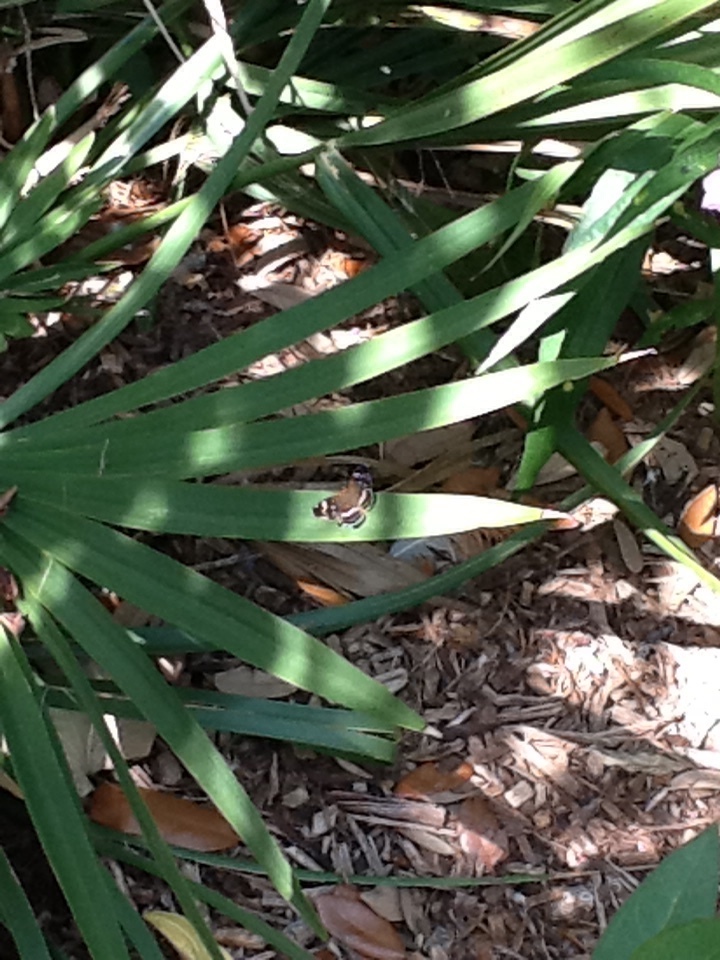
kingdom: Animalia
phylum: Arthropoda
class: Insecta
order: Lepidoptera
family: Nymphalidae
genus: Anthanassa
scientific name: Anthanassa texana
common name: Texan crescent
